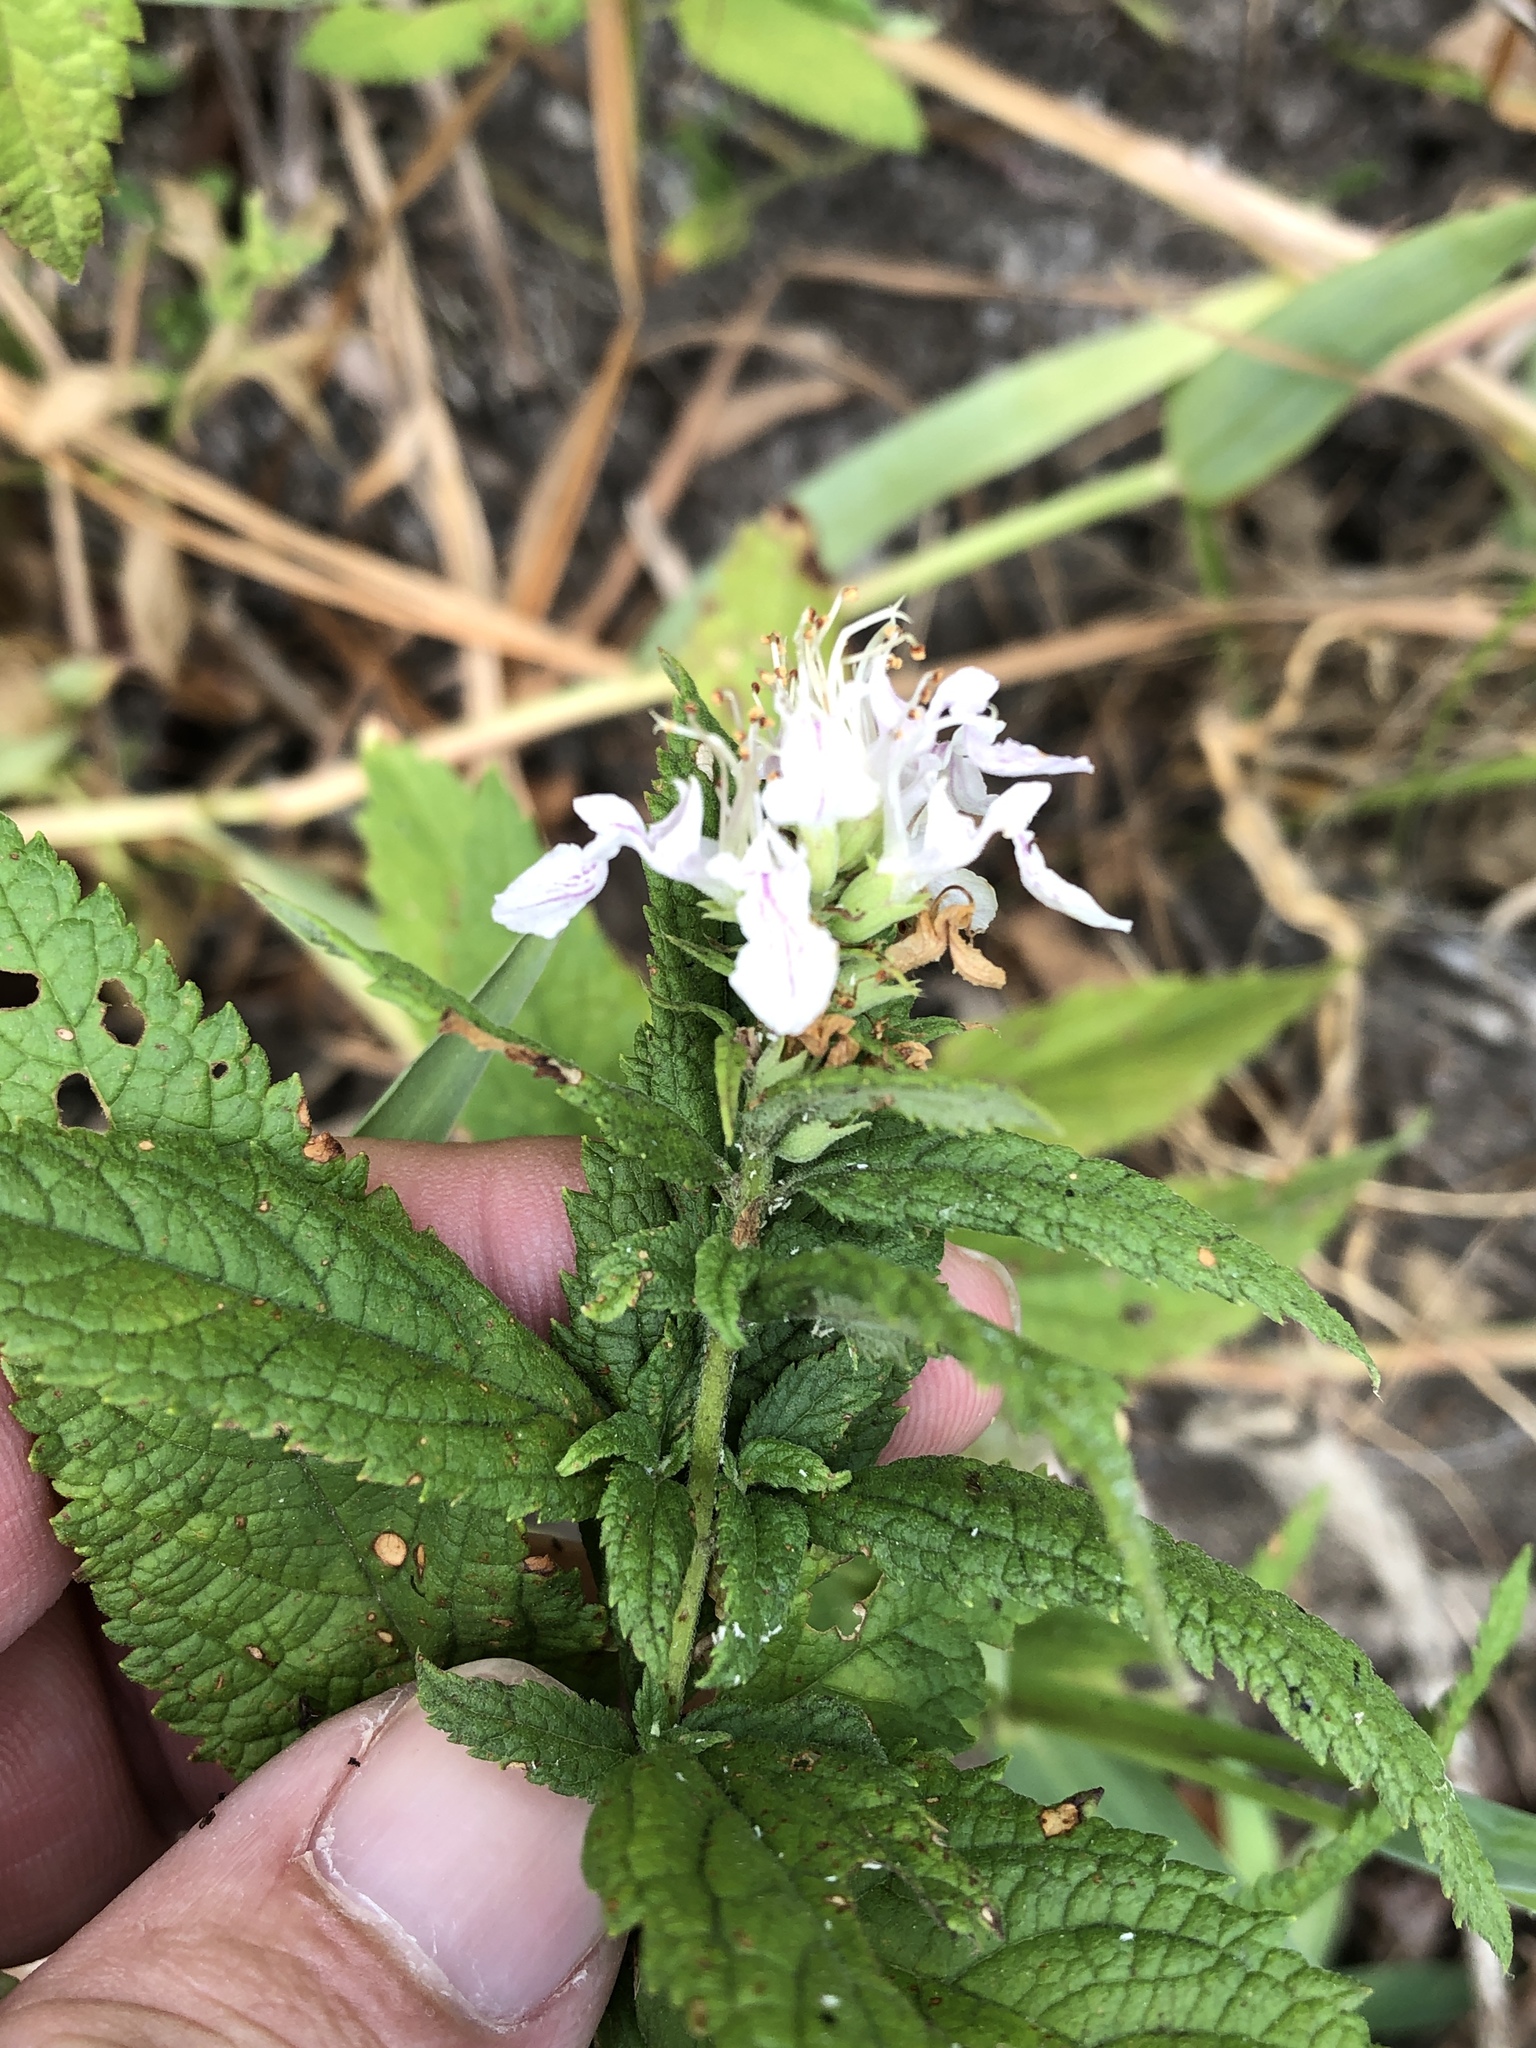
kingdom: Plantae
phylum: Tracheophyta
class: Magnoliopsida
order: Lamiales
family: Lamiaceae
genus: Teucrium
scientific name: Teucrium canadense
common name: American germander
